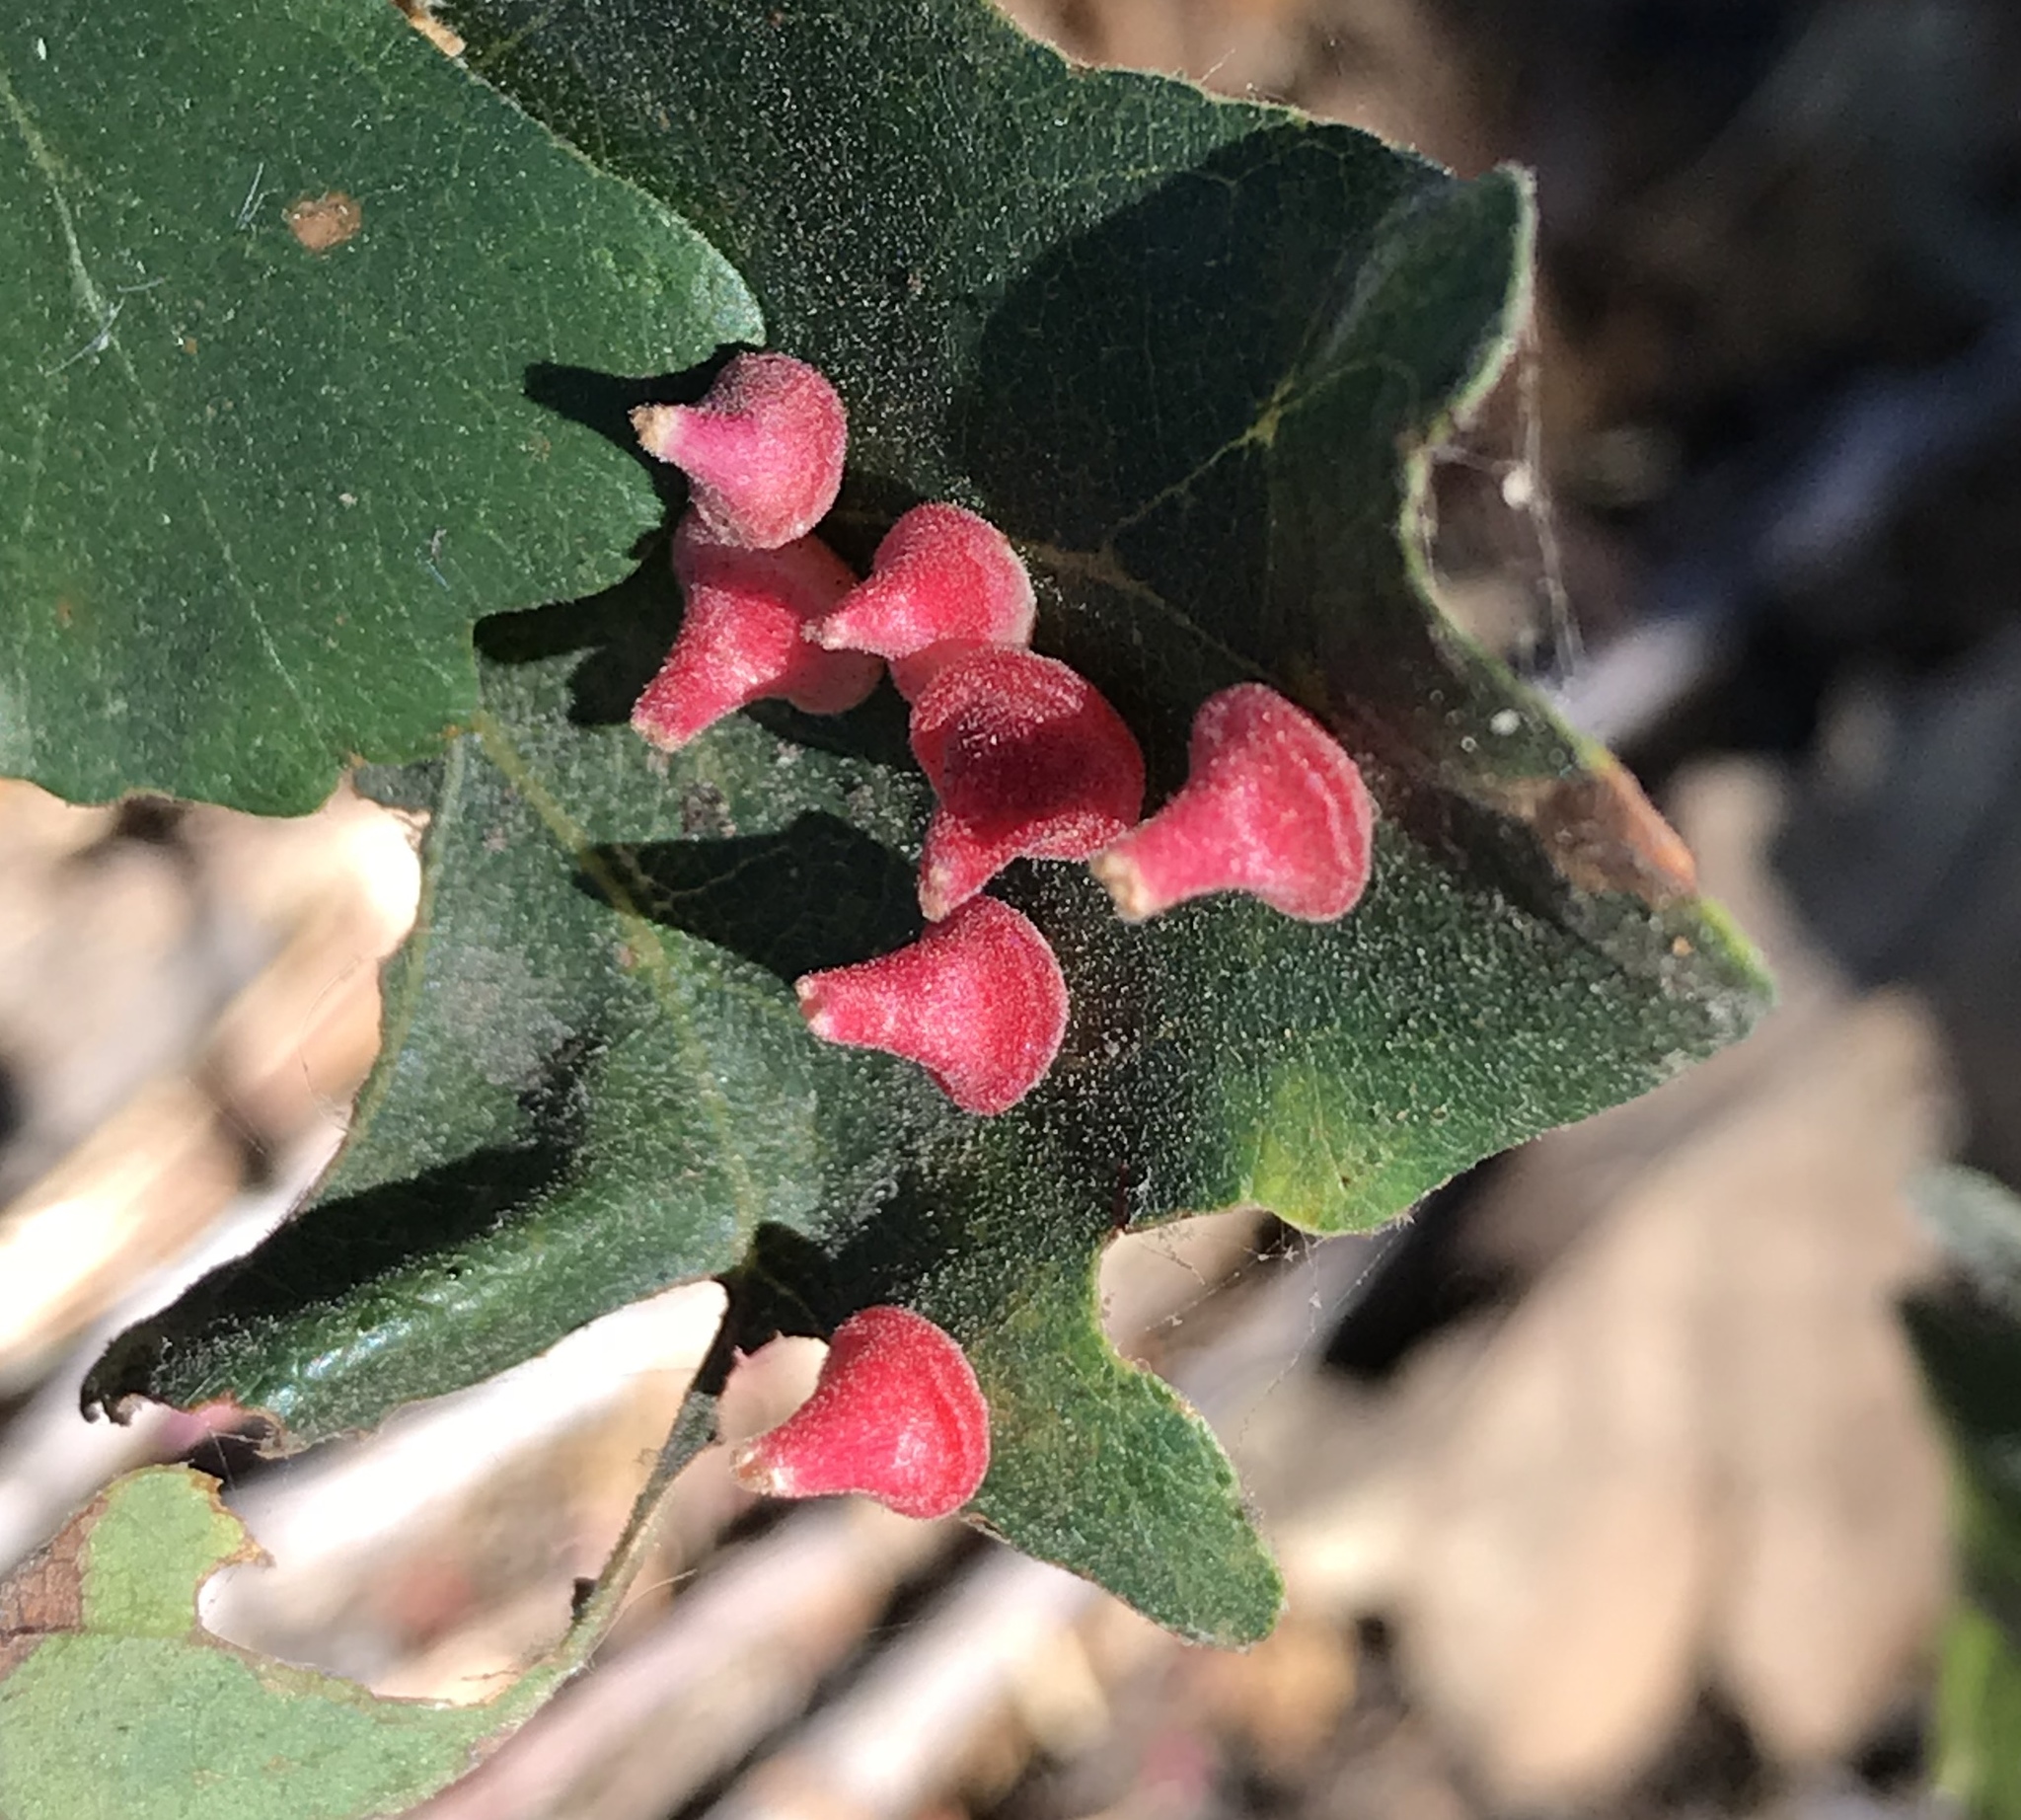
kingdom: Animalia
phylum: Arthropoda
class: Insecta
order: Hymenoptera
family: Cynipidae
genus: Andricus
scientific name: Andricus
